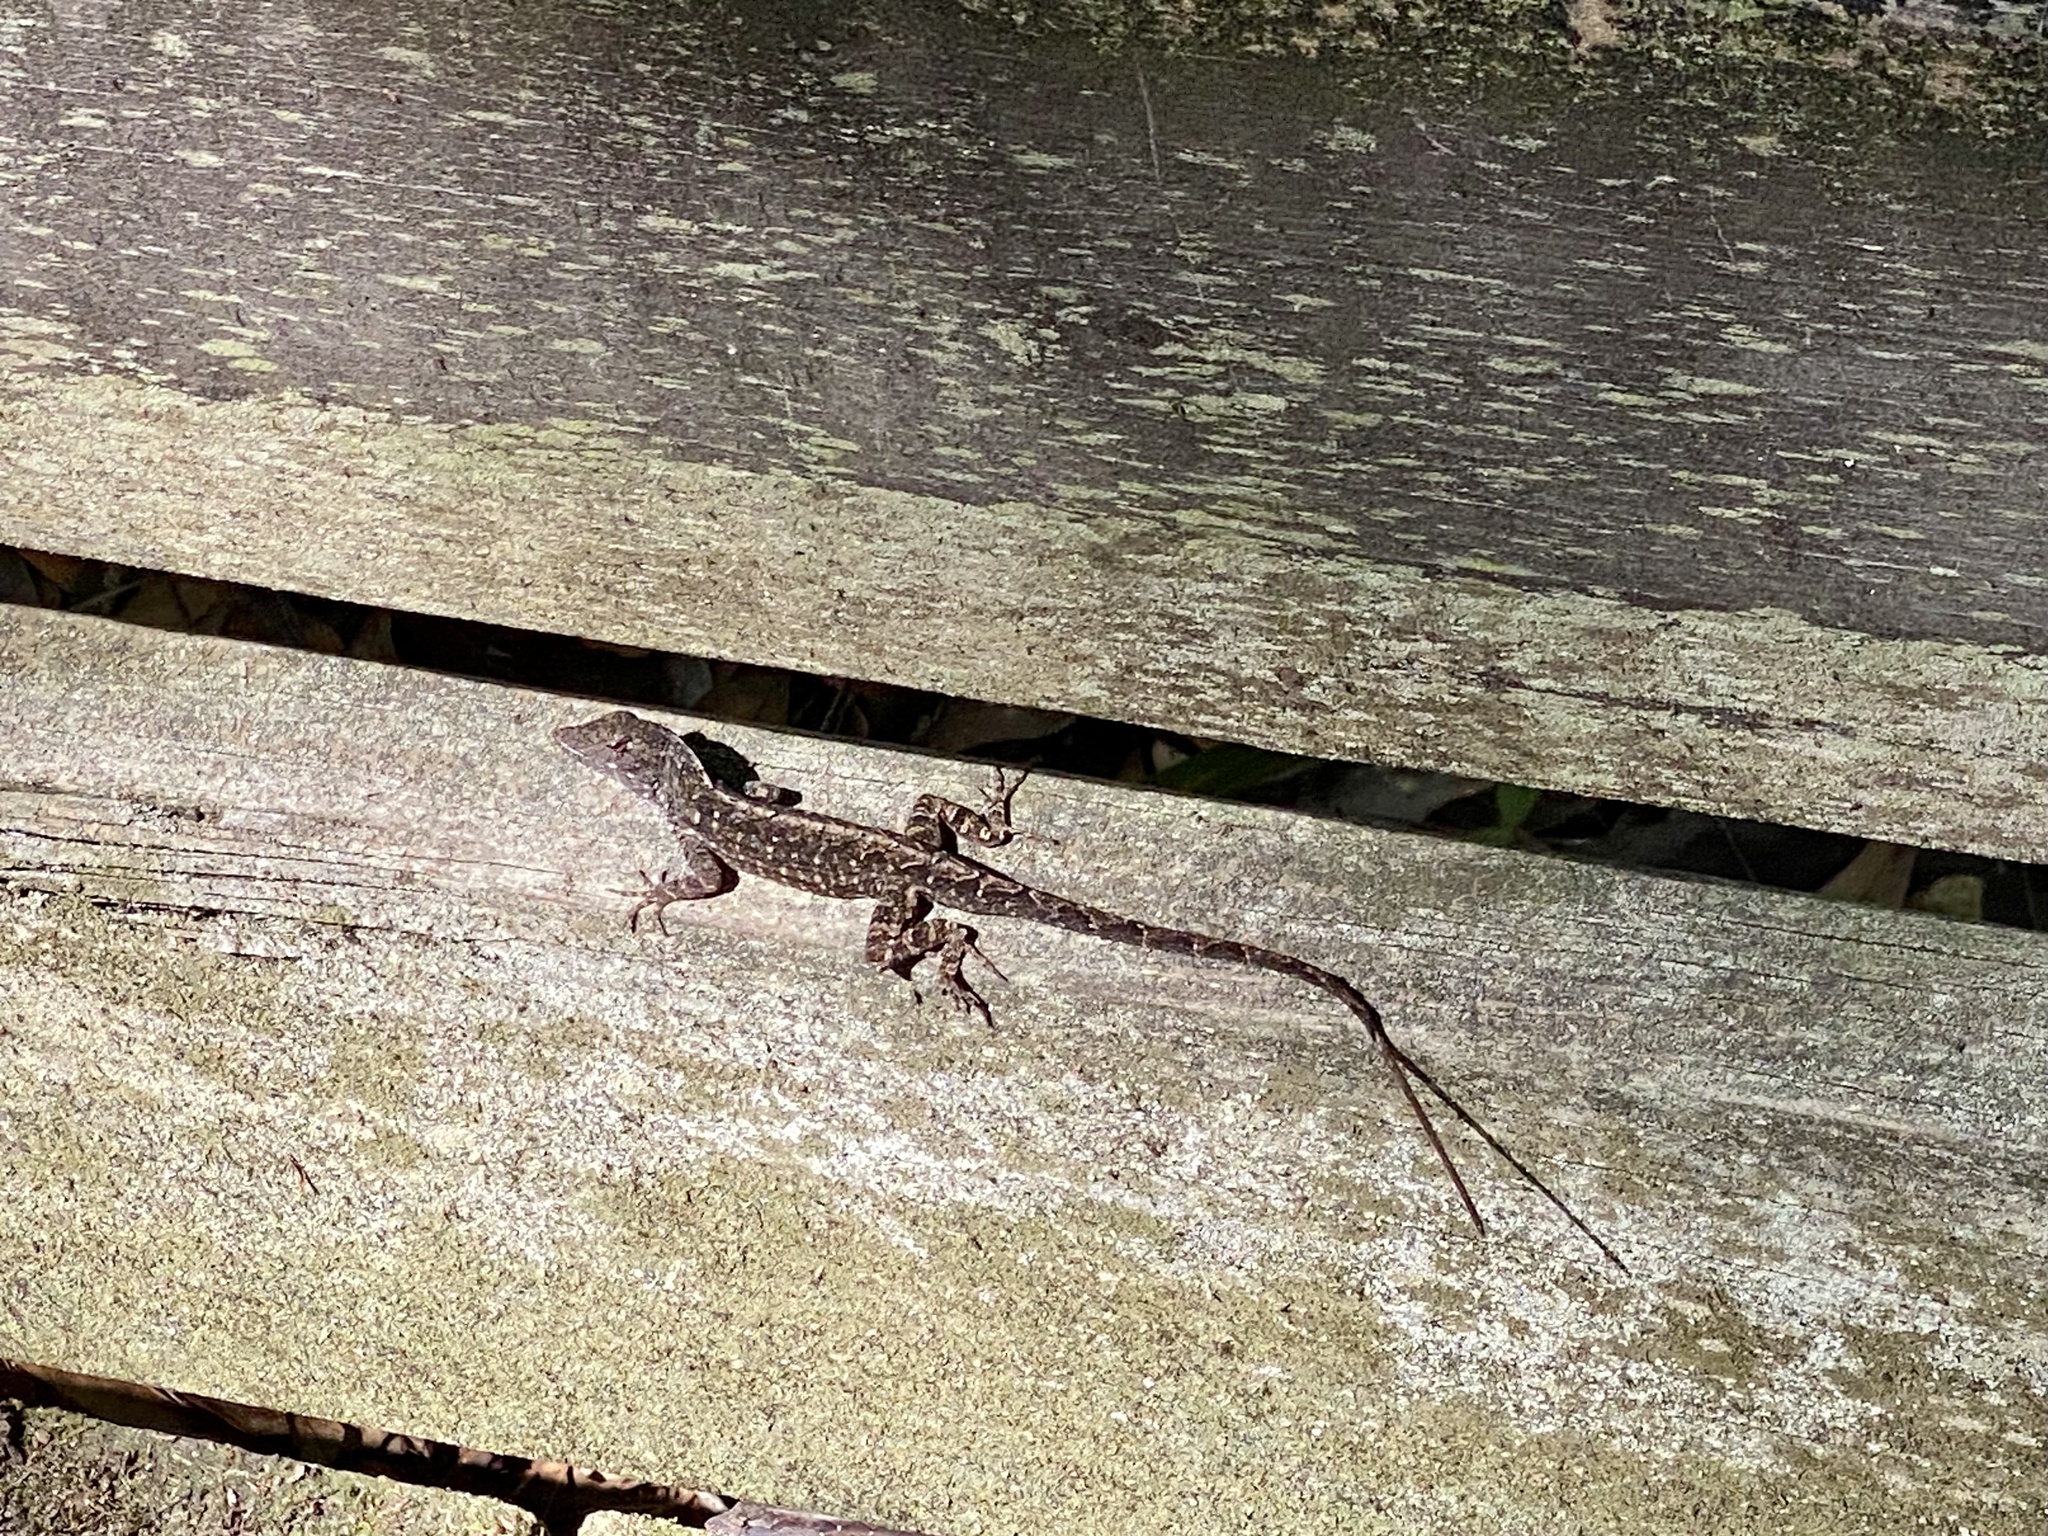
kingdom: Animalia
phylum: Chordata
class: Squamata
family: Dactyloidae
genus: Anolis
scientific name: Anolis sagrei
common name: Brown anole
